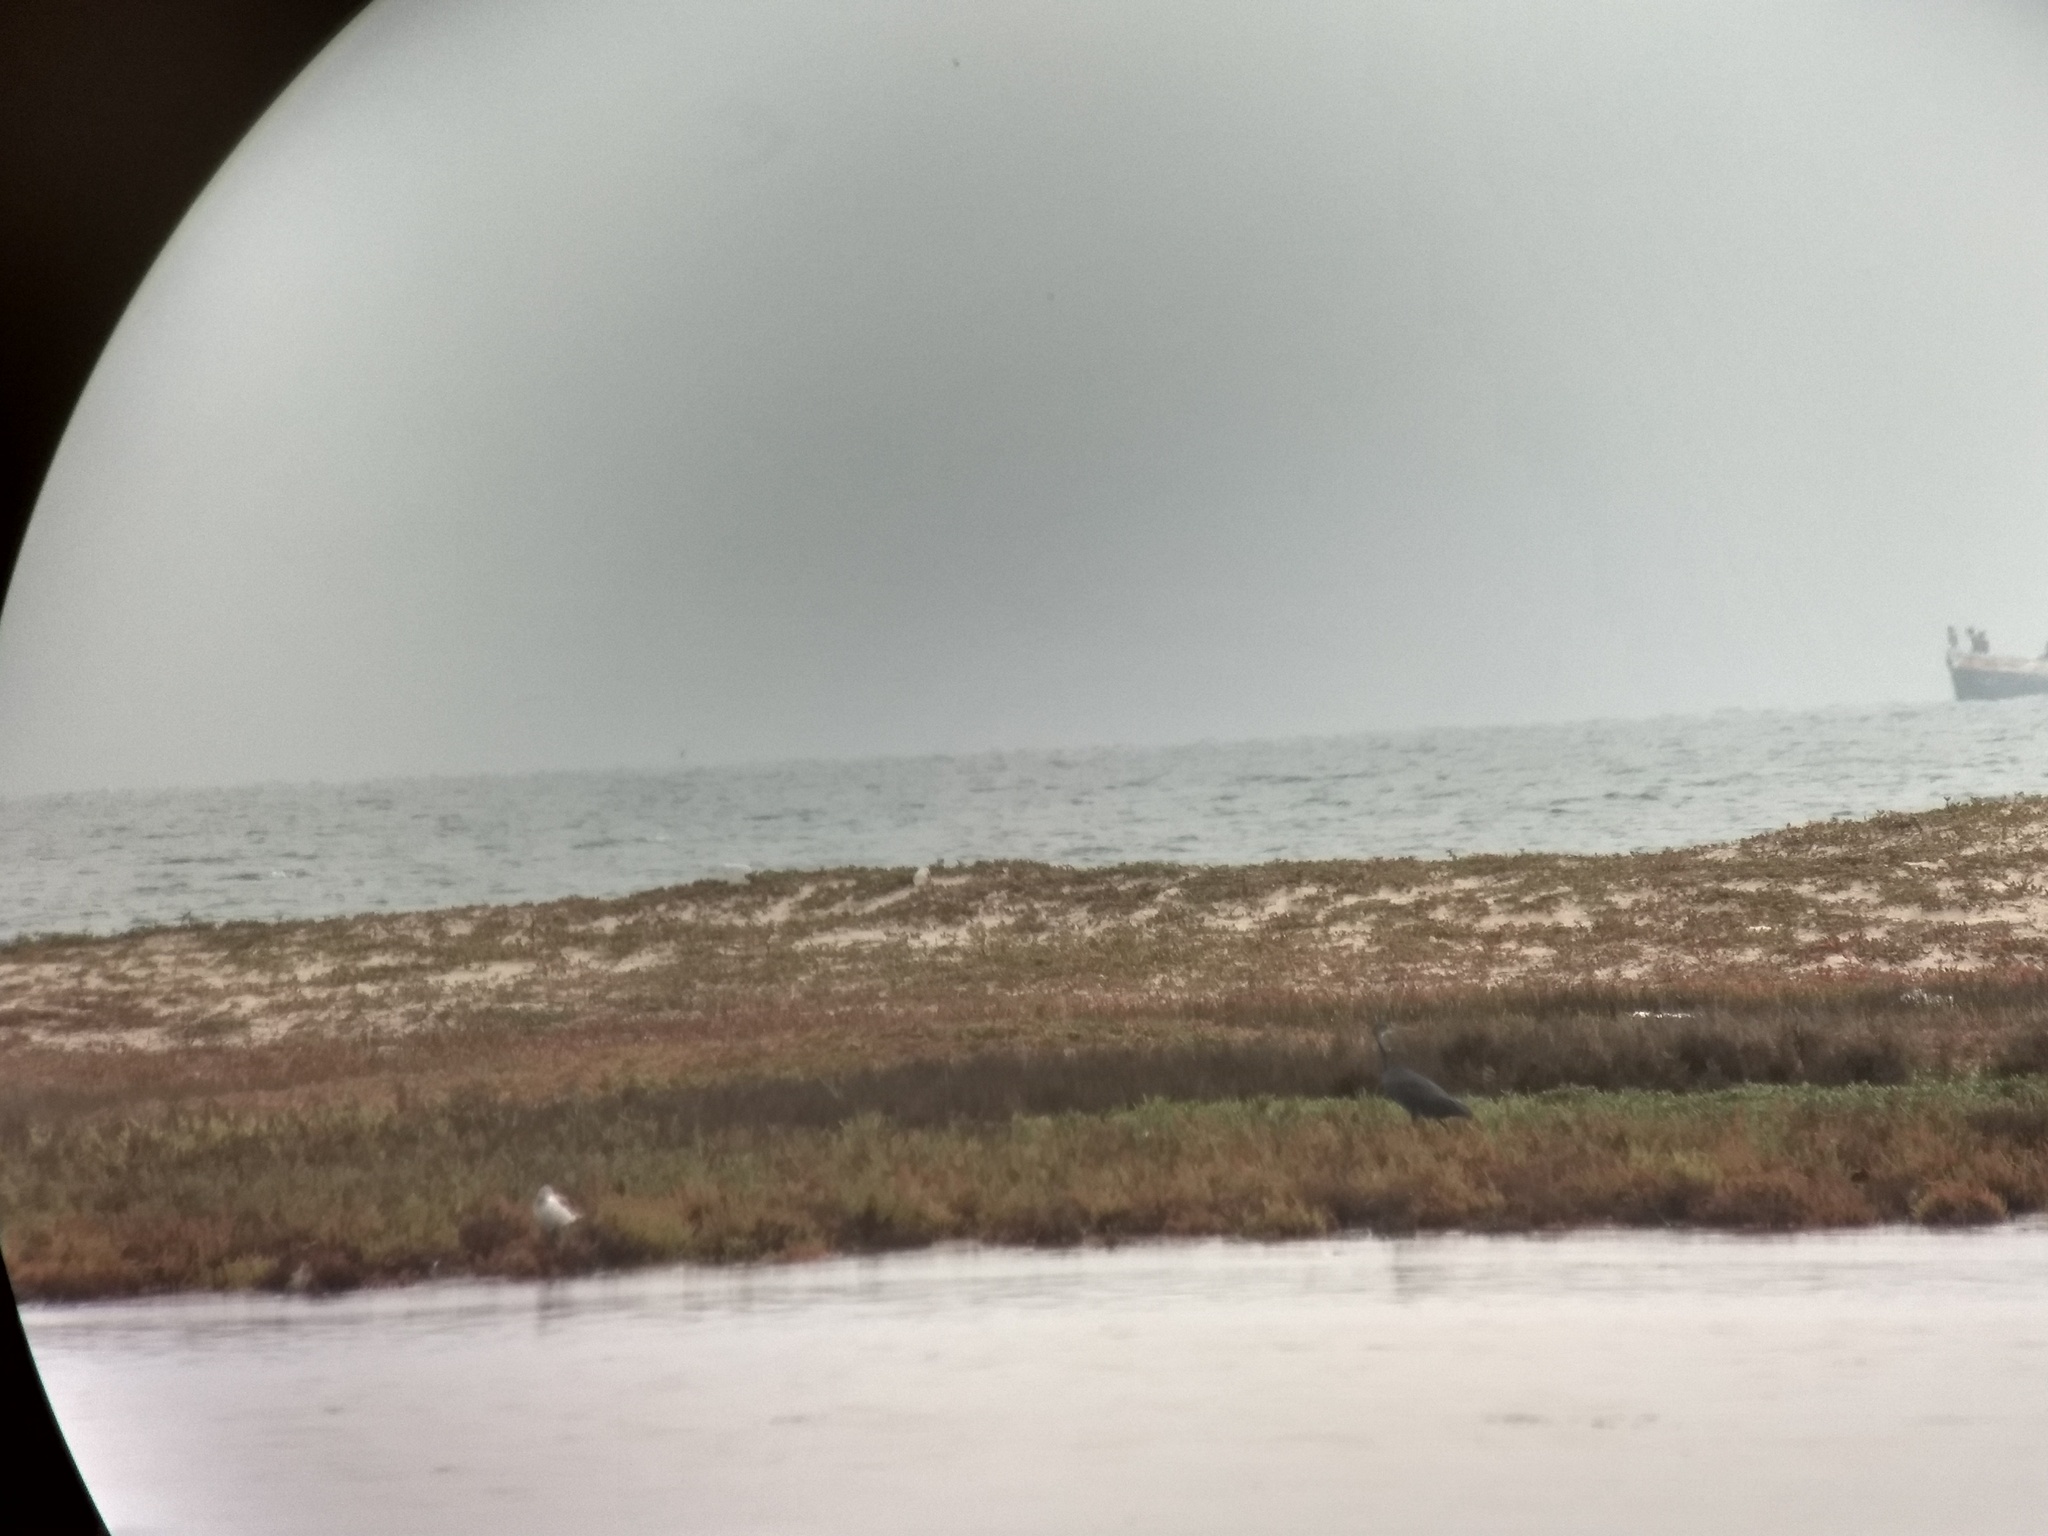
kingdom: Animalia
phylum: Chordata
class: Aves
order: Pelecaniformes
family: Ardeidae
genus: Egretta
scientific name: Egretta gularis
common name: Western reef-heron
